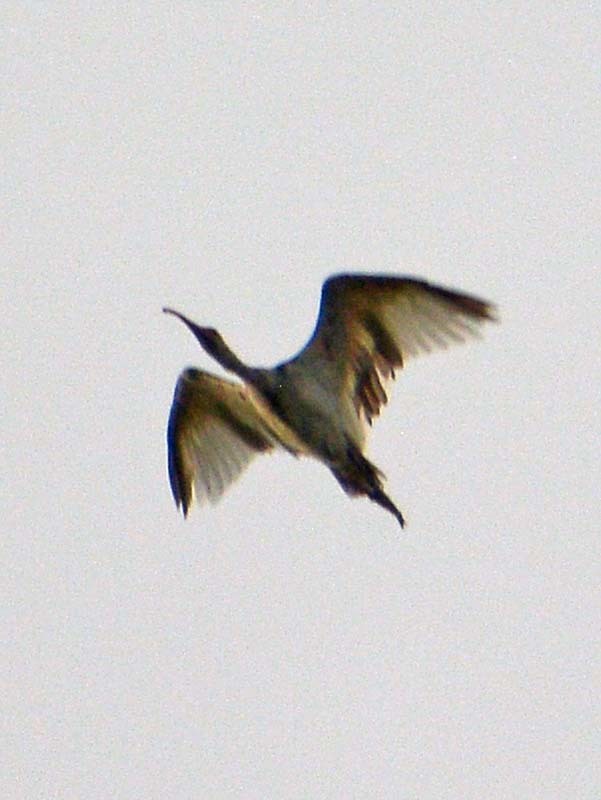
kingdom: Animalia
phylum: Chordata
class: Aves
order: Pelecaniformes
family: Threskiornithidae
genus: Eudocimus
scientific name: Eudocimus albus
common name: White ibis
